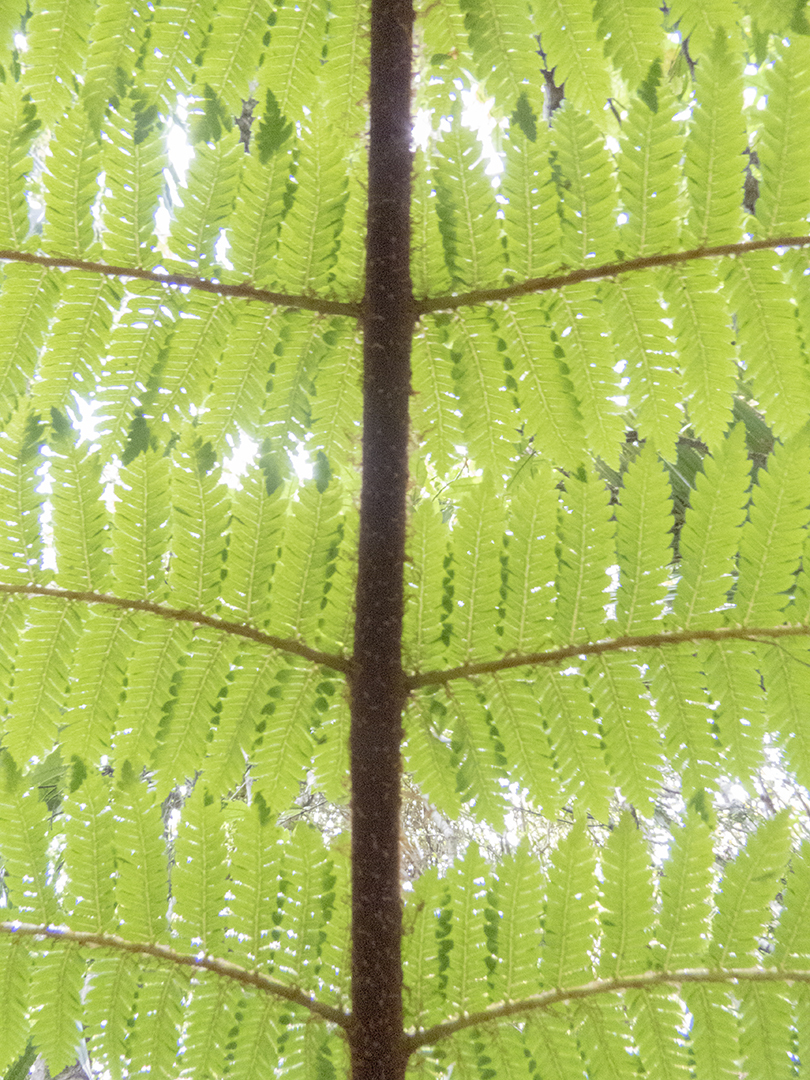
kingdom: Plantae
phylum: Tracheophyta
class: Polypodiopsida
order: Cyatheales
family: Cyatheaceae
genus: Alsophila
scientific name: Alsophila smithii
